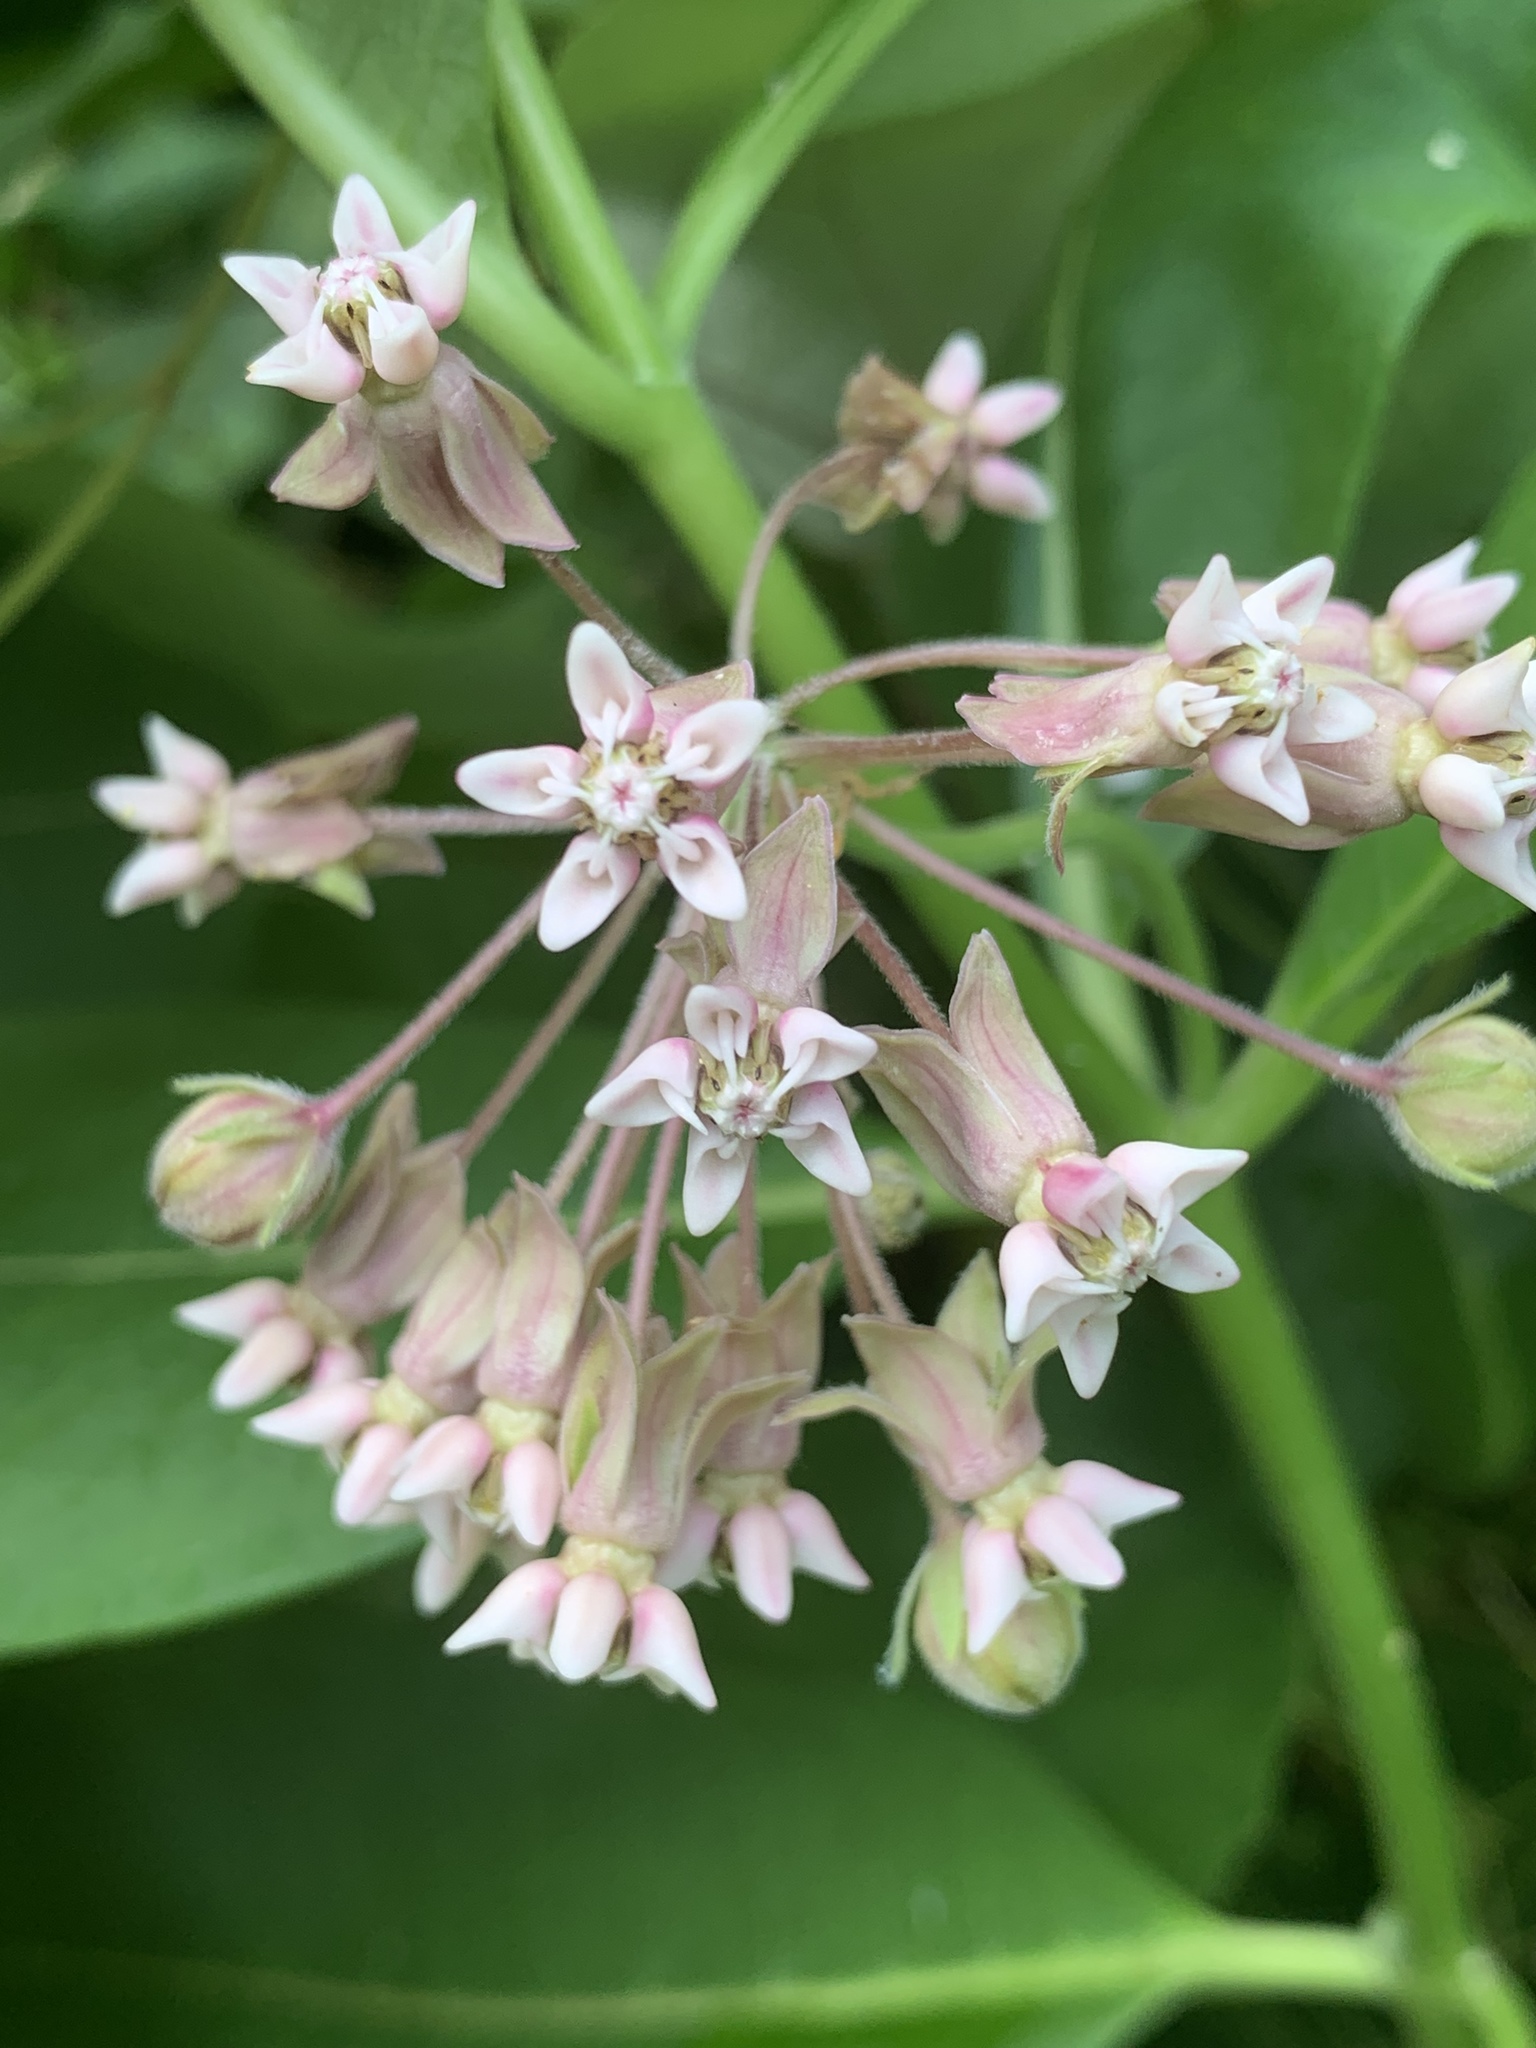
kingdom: Plantae
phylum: Tracheophyta
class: Magnoliopsida
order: Gentianales
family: Apocynaceae
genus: Asclepias
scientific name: Asclepias syriaca
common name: Common milkweed
